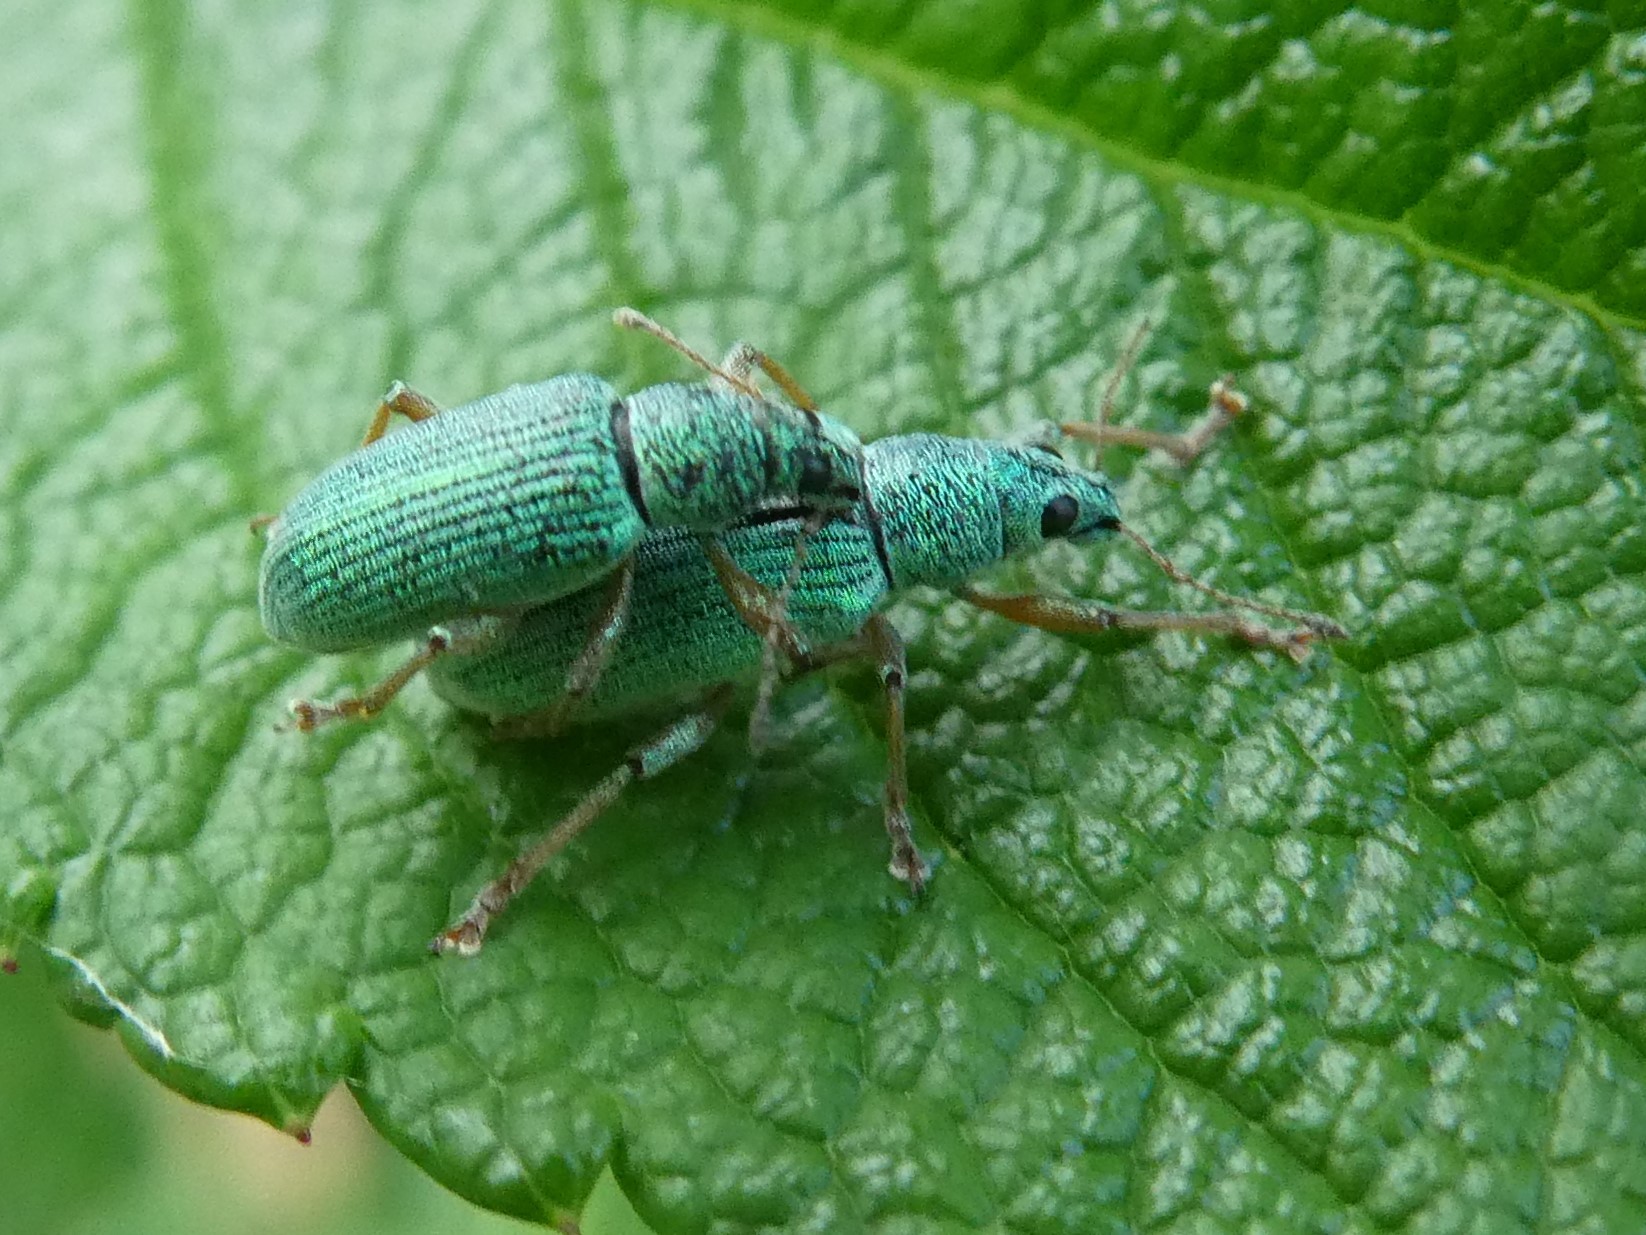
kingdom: Animalia
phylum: Arthropoda
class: Insecta
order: Coleoptera
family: Curculionidae
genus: Polydrusus
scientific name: Polydrusus formosus
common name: Weevil
